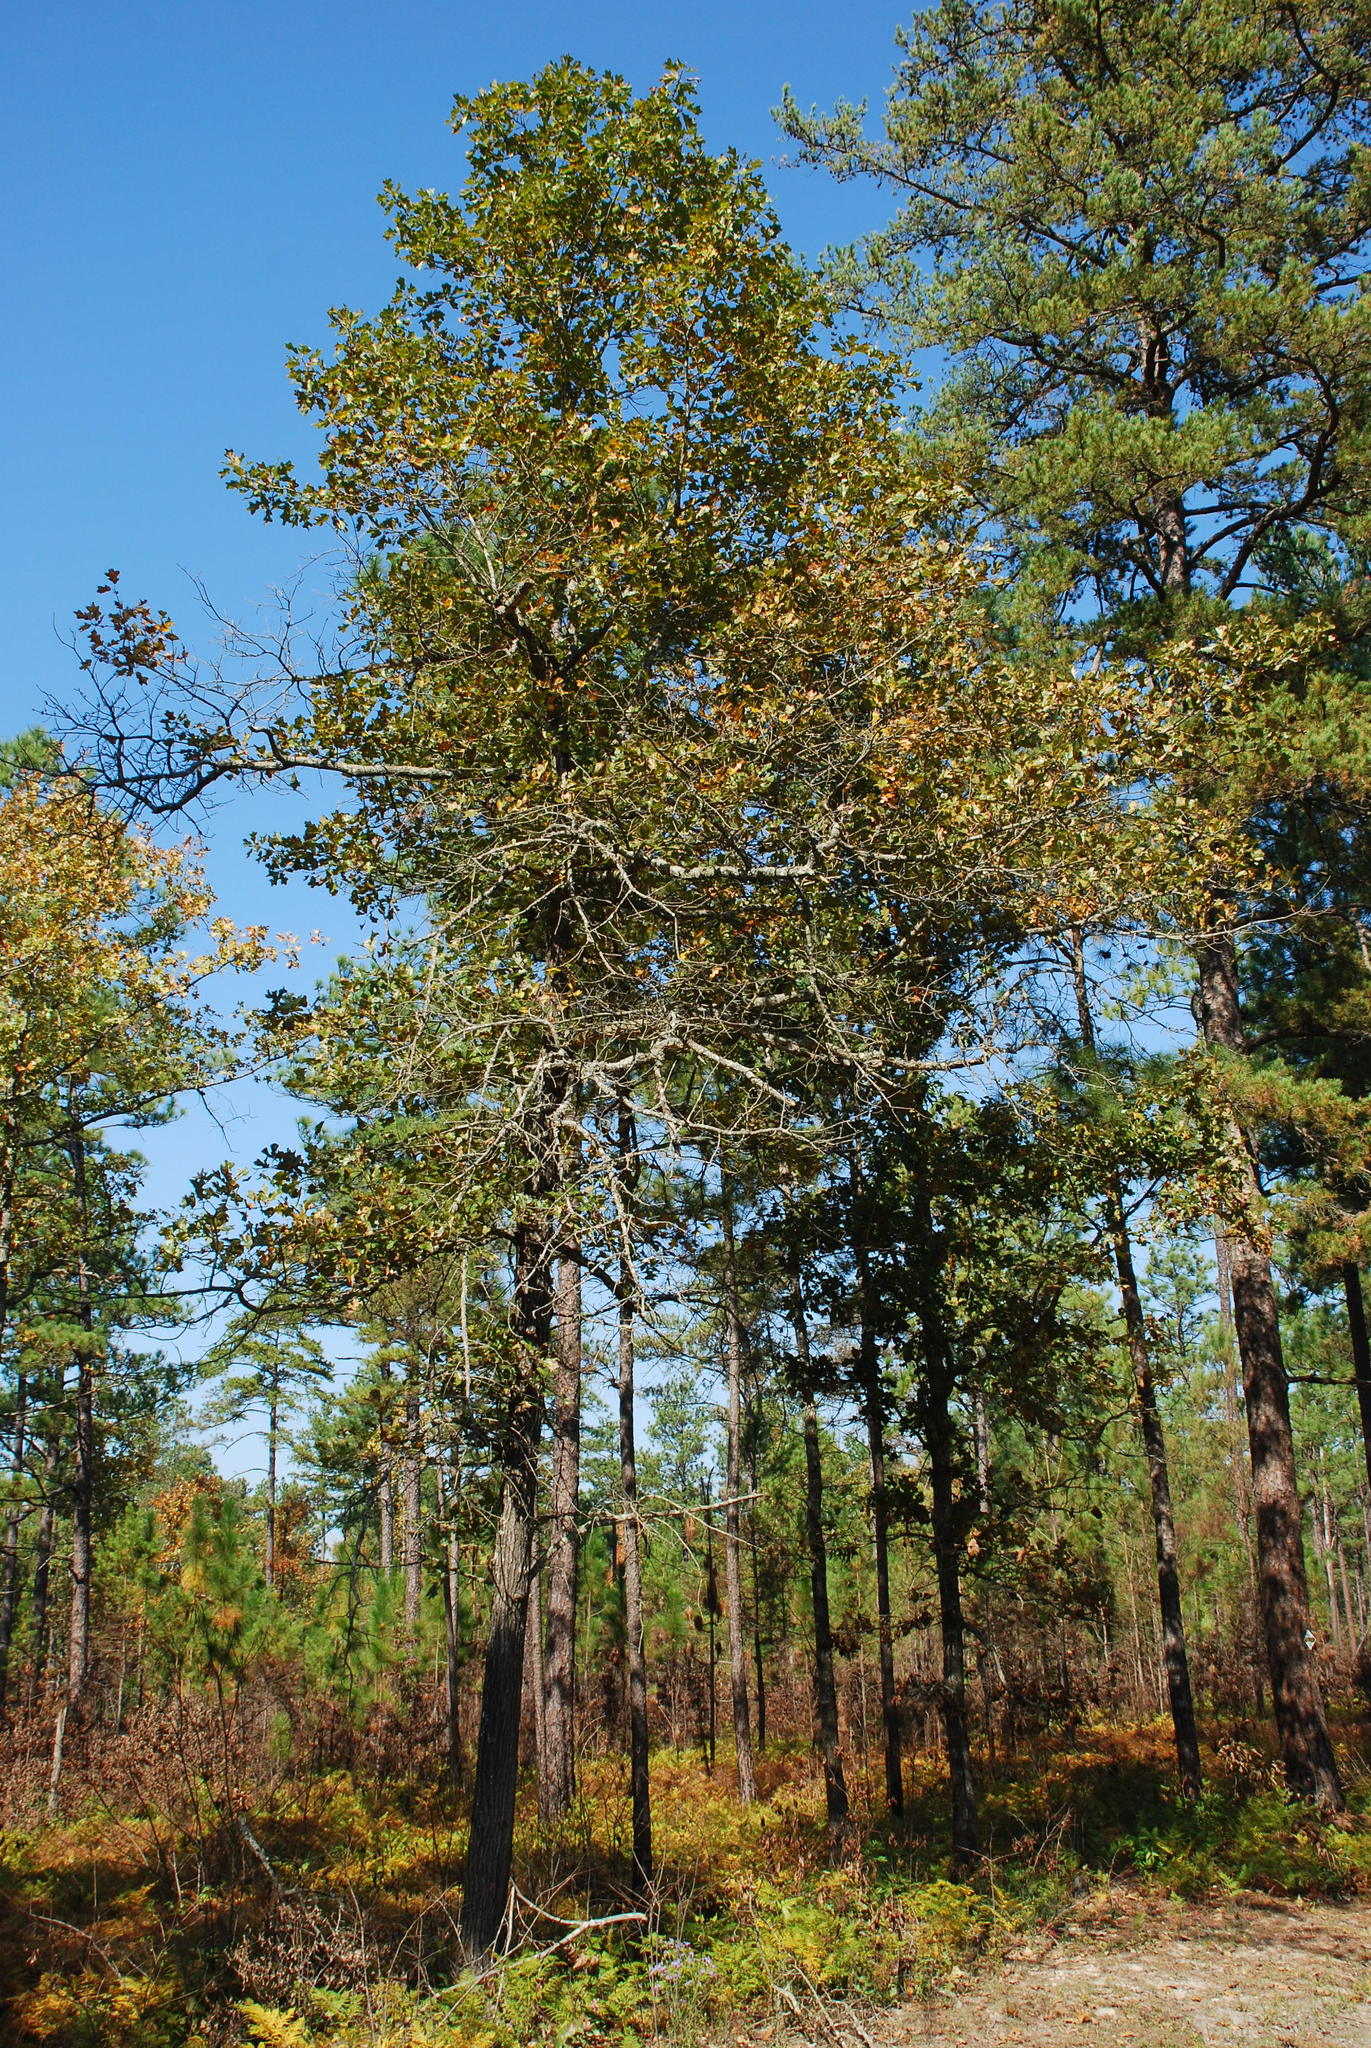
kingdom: Plantae
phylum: Tracheophyta
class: Magnoliopsida
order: Fagales
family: Fagaceae
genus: Quercus
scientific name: Quercus incomita
